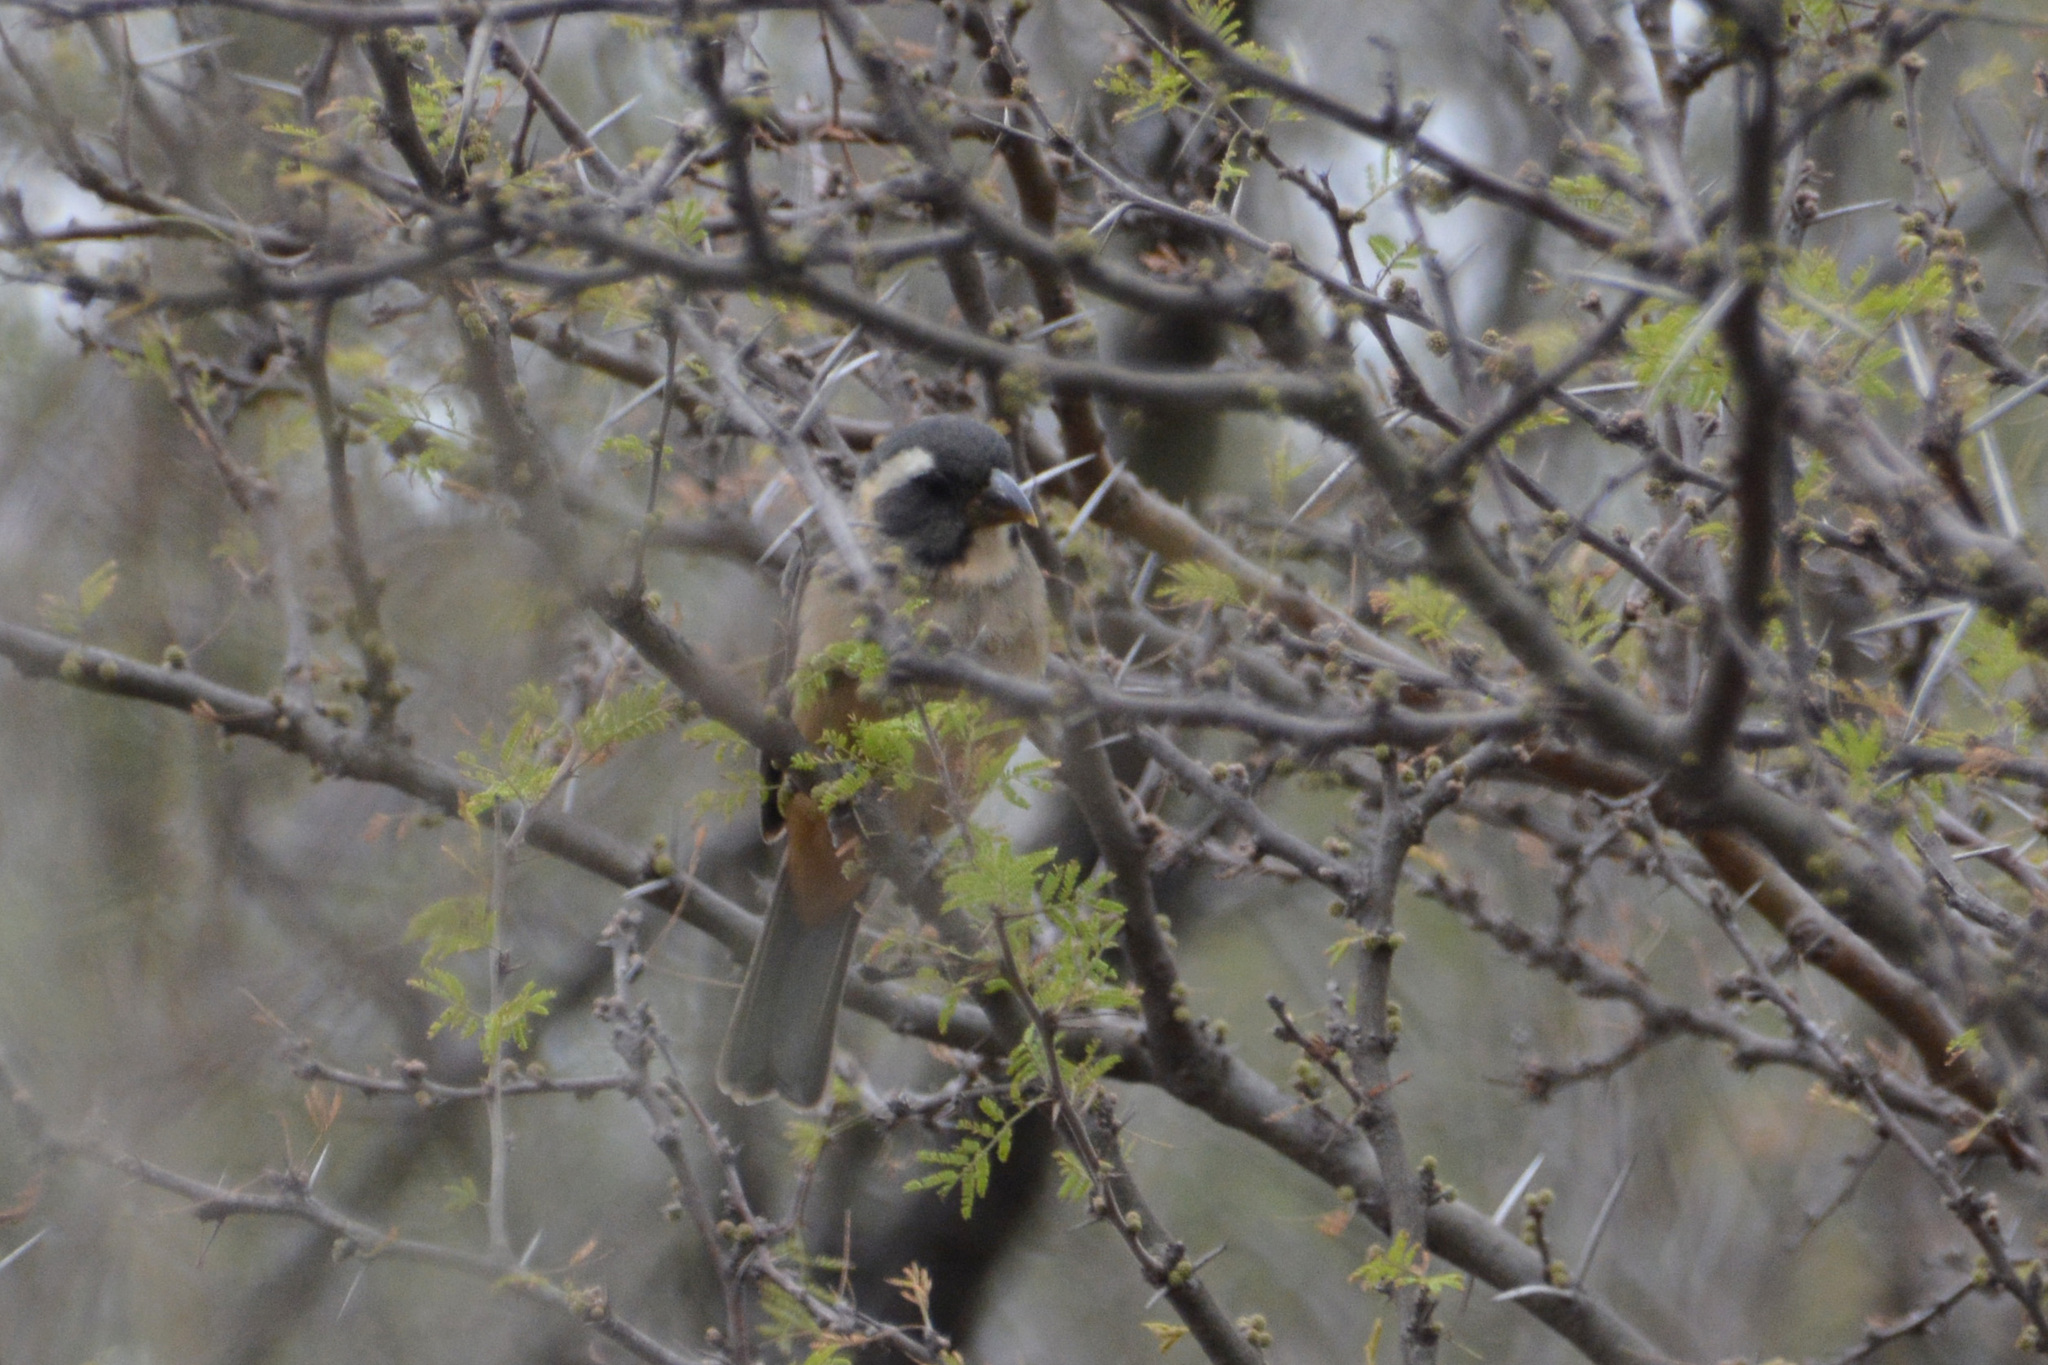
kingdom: Animalia
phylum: Chordata
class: Aves
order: Passeriformes
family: Thraupidae
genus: Saltator
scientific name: Saltator aurantiirostris
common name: Golden-billed saltator
